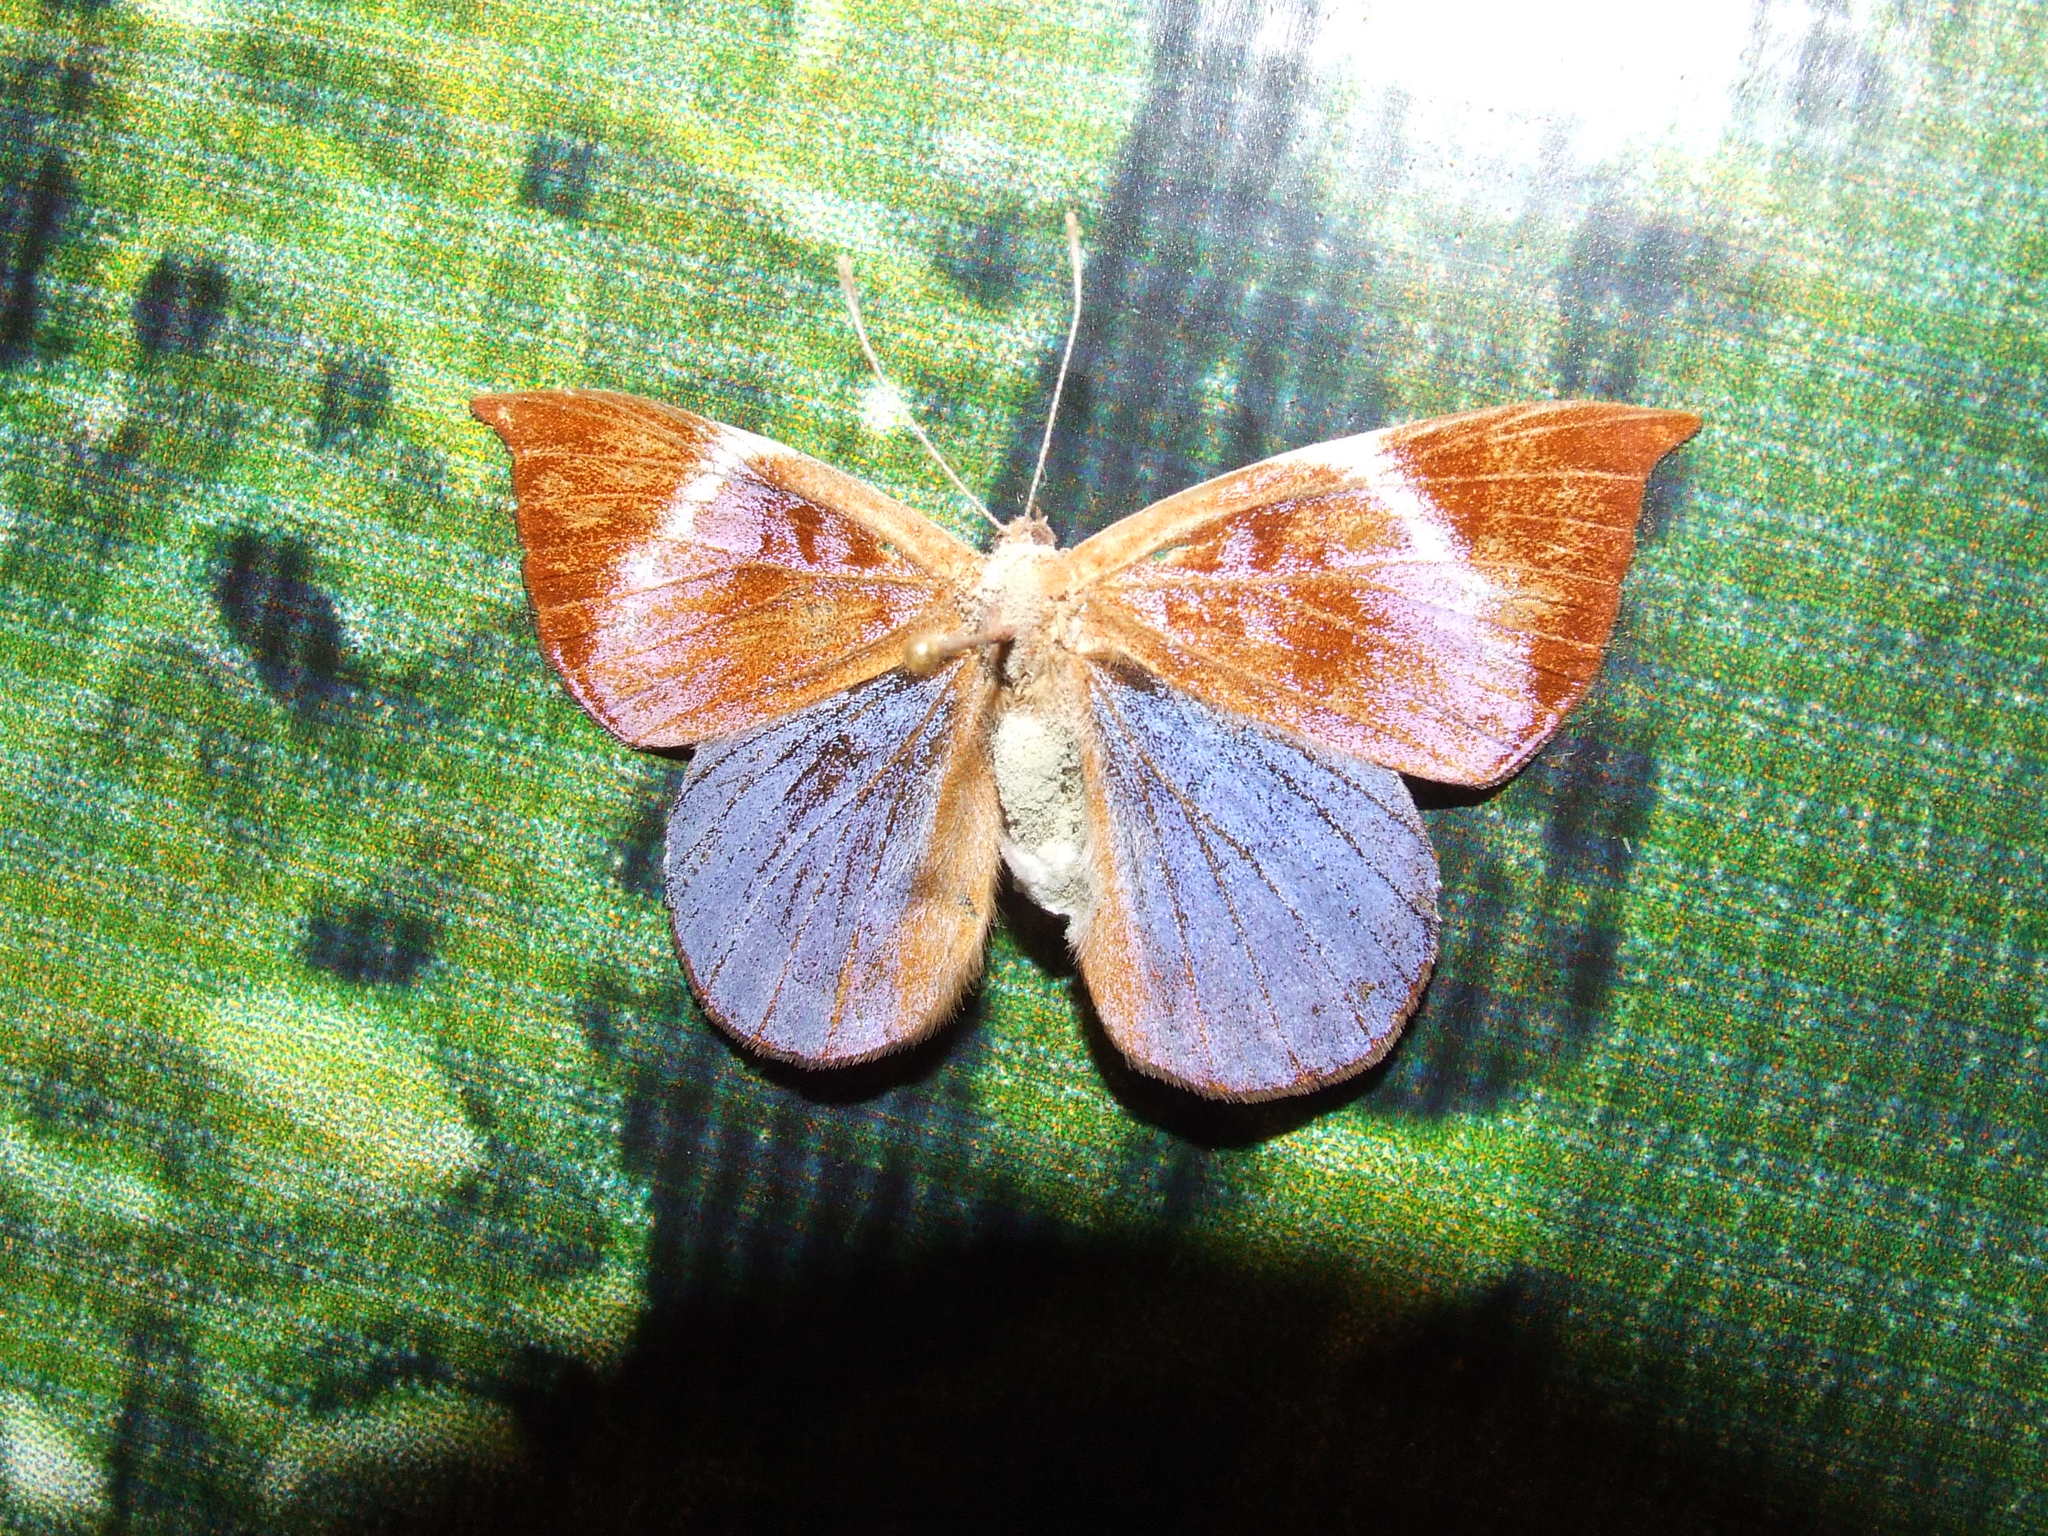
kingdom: Animalia
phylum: Arthropoda
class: Insecta
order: Lepidoptera
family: Riodinidae
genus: Behemothia
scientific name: Behemothia godmanii
